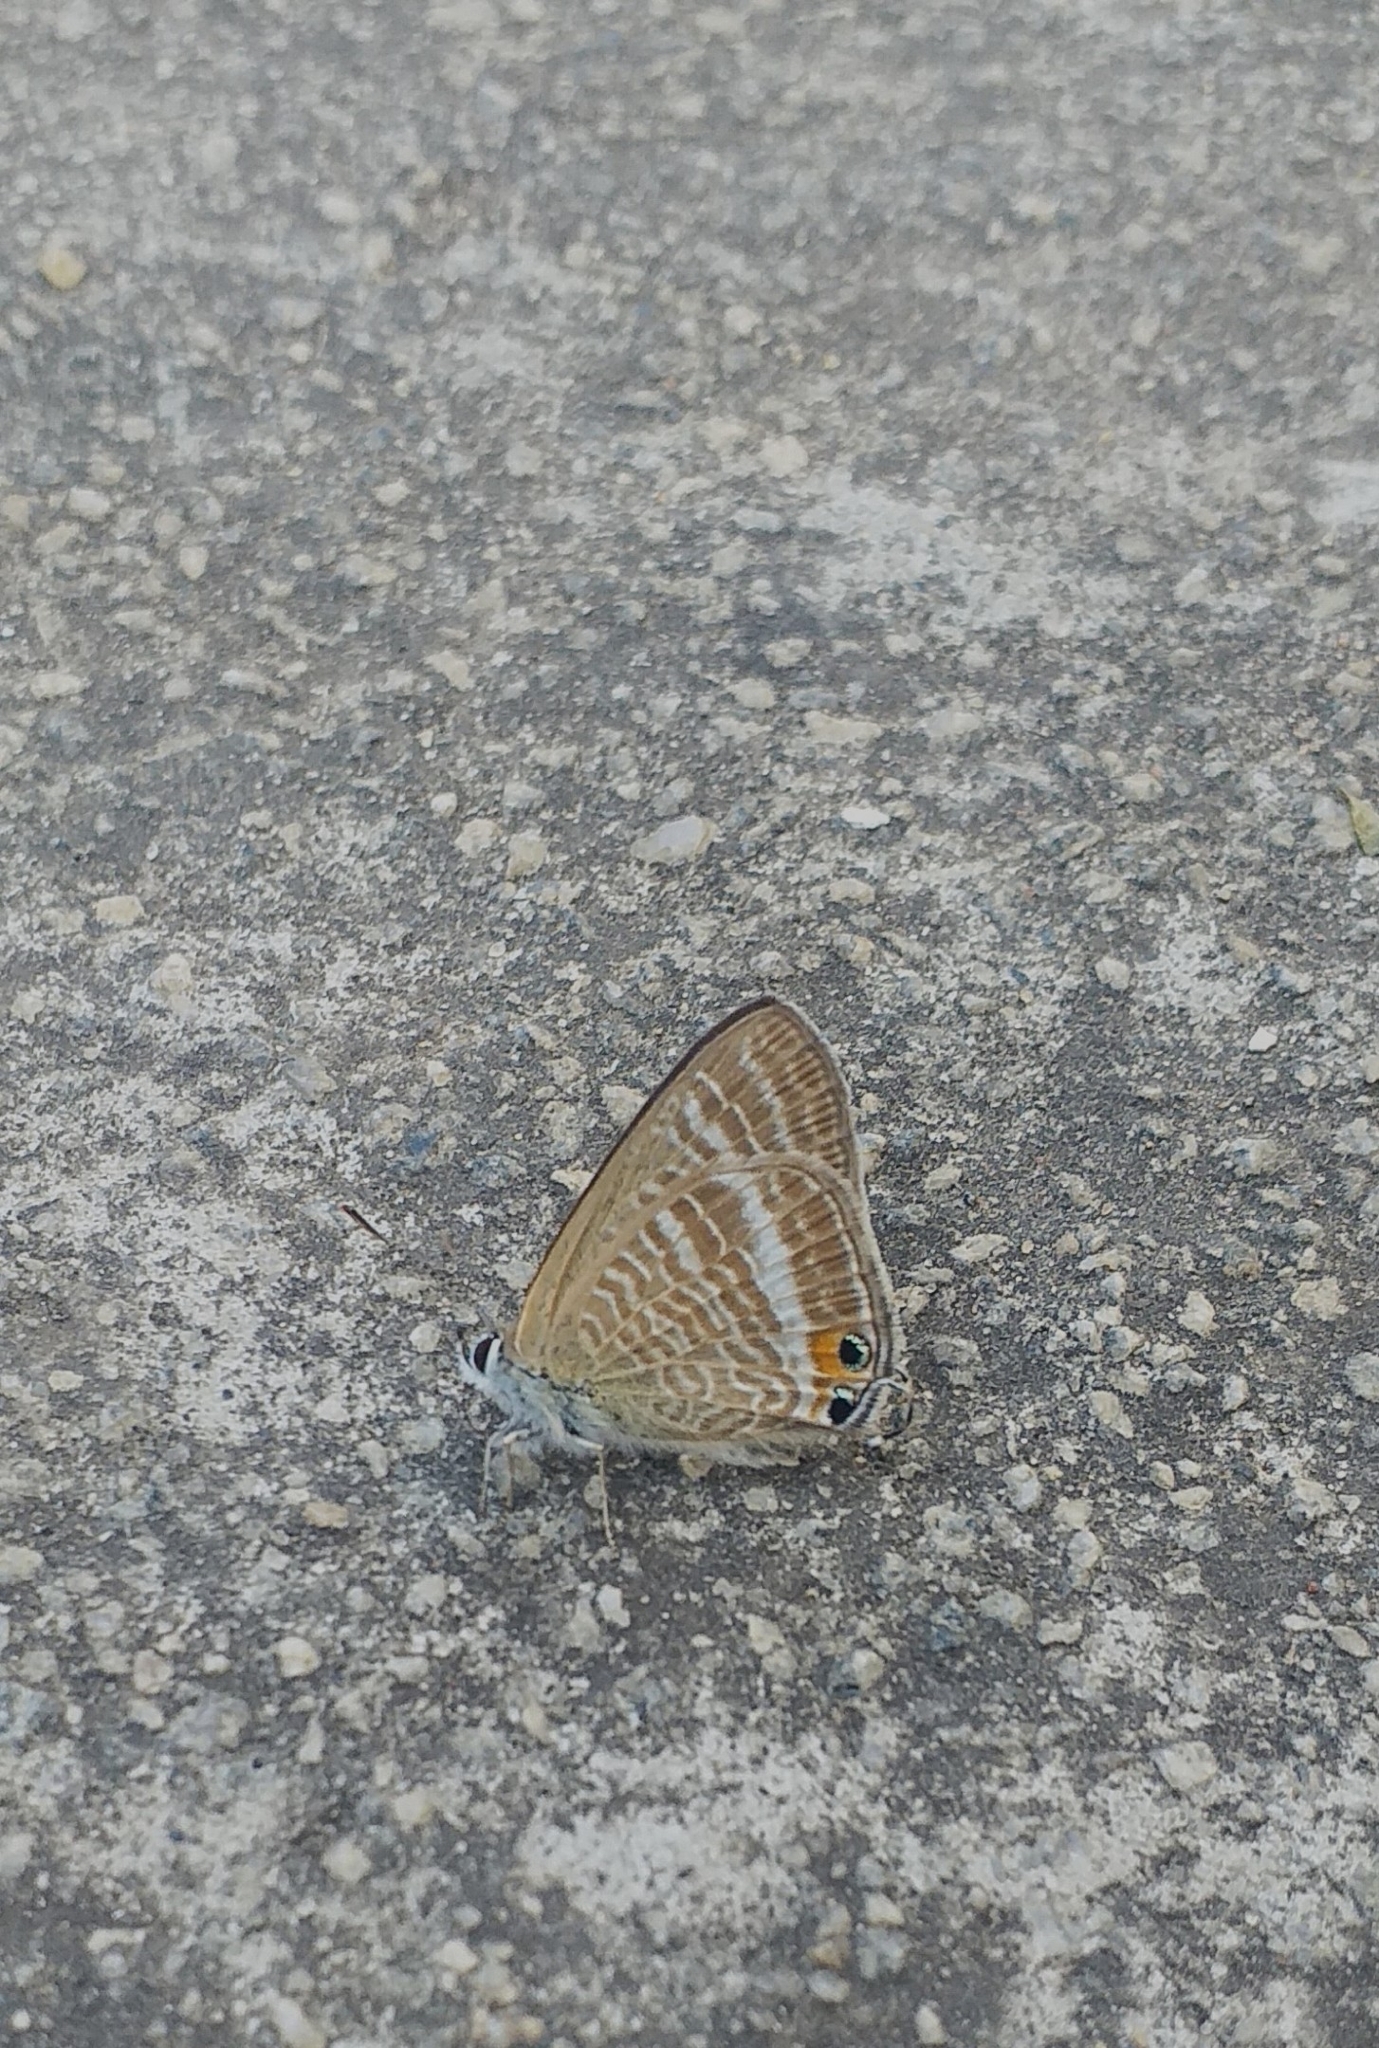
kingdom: Animalia
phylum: Arthropoda
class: Insecta
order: Lepidoptera
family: Lycaenidae
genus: Lampides
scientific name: Lampides boeticus
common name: Long-tailed blue
